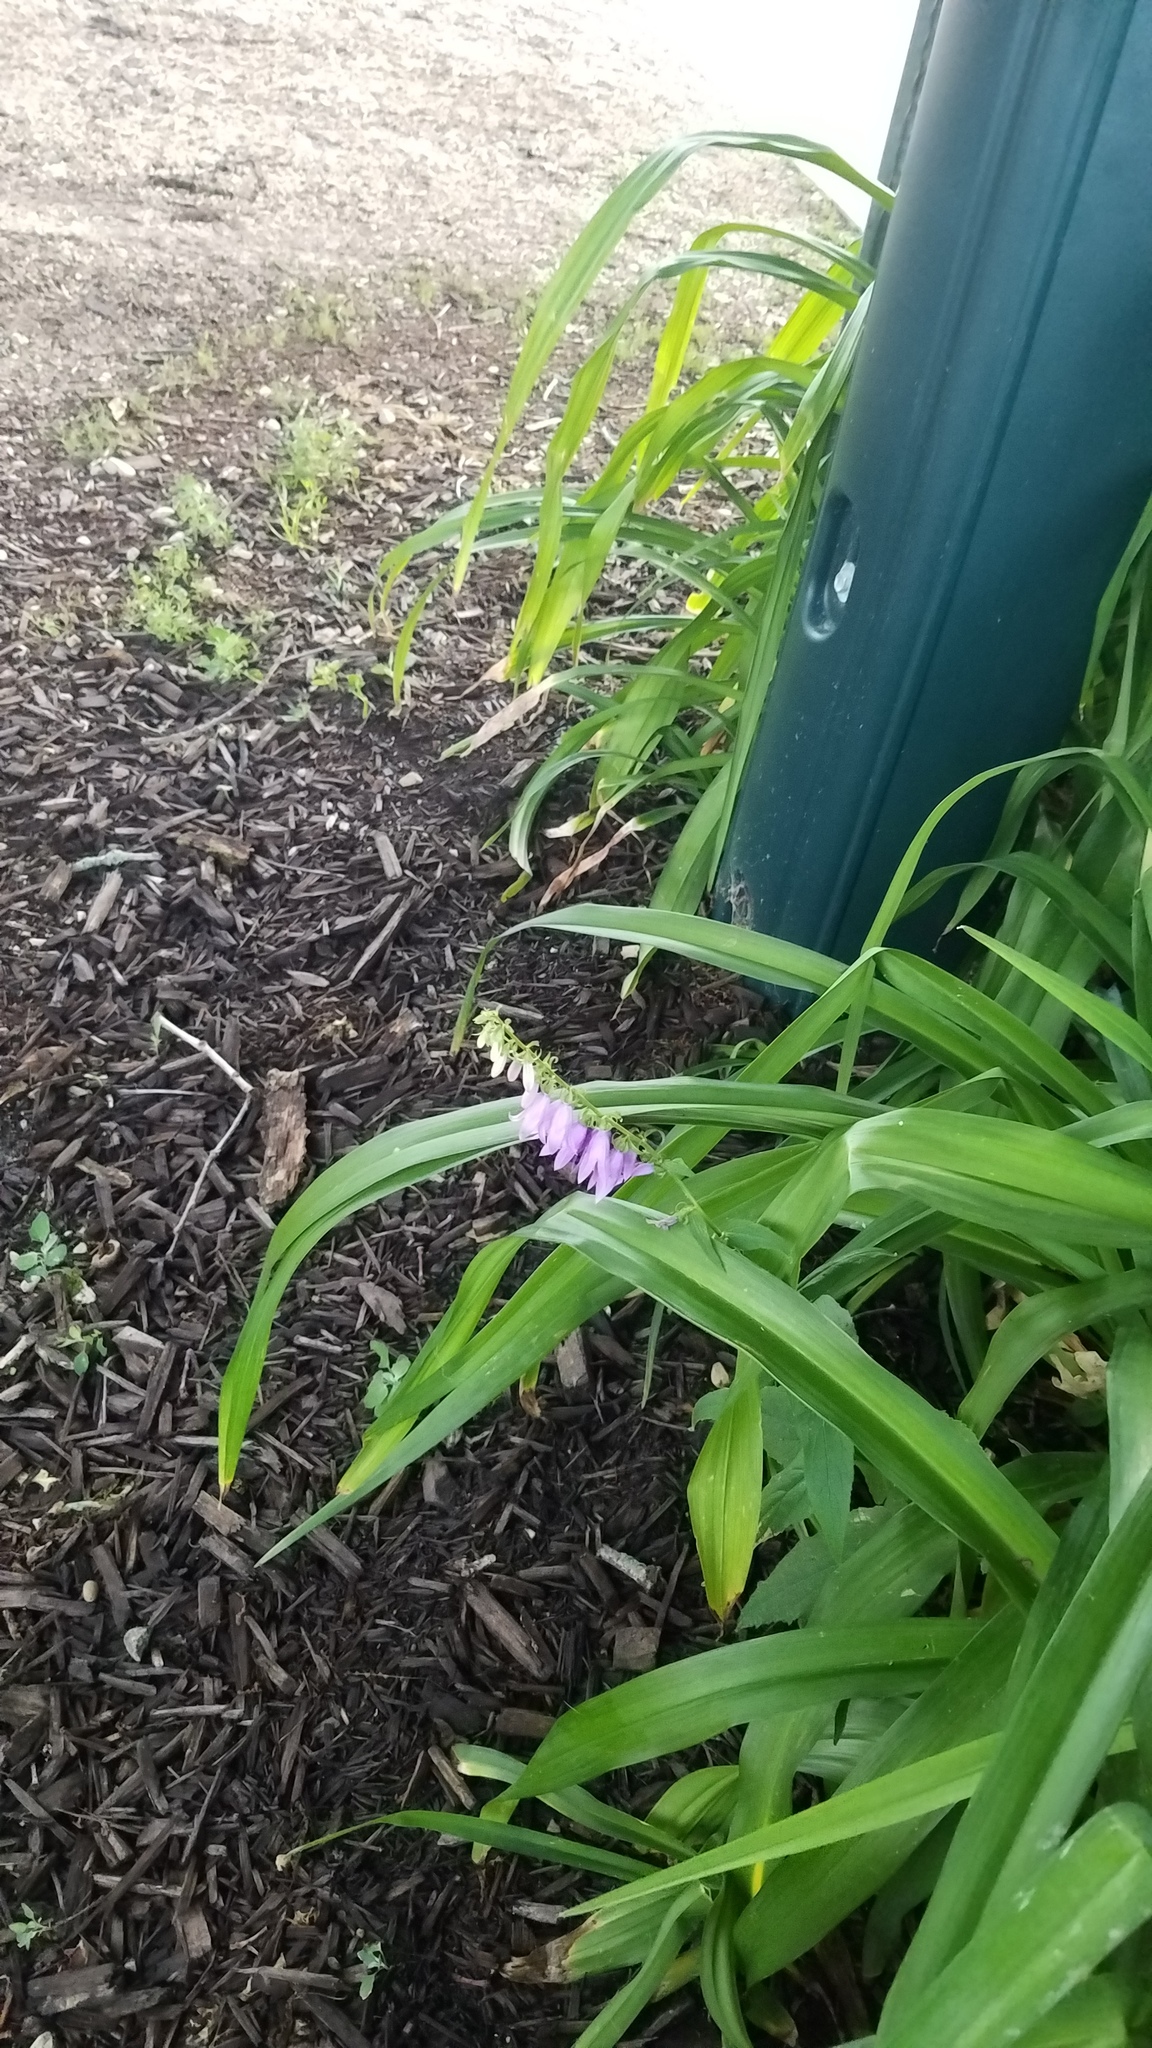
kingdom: Plantae
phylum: Tracheophyta
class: Magnoliopsida
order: Asterales
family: Campanulaceae
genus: Campanula
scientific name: Campanula rapunculoides
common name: Creeping bellflower
